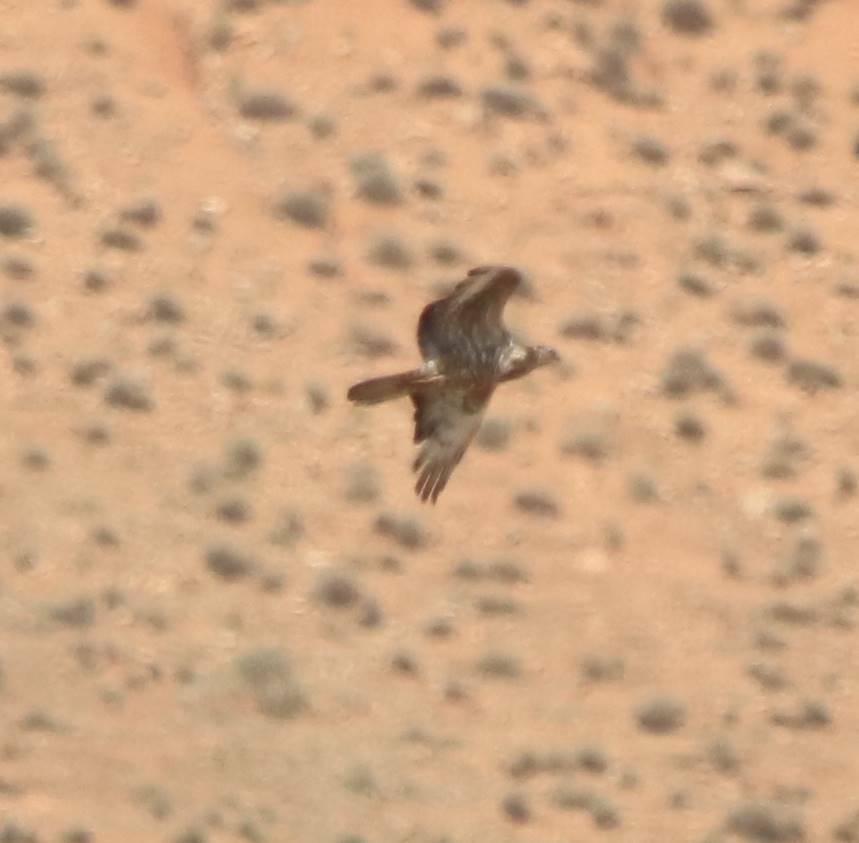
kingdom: Animalia
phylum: Chordata
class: Aves
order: Accipitriformes
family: Accipitridae
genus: Pernis
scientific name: Pernis apivorus
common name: European honey buzzard
